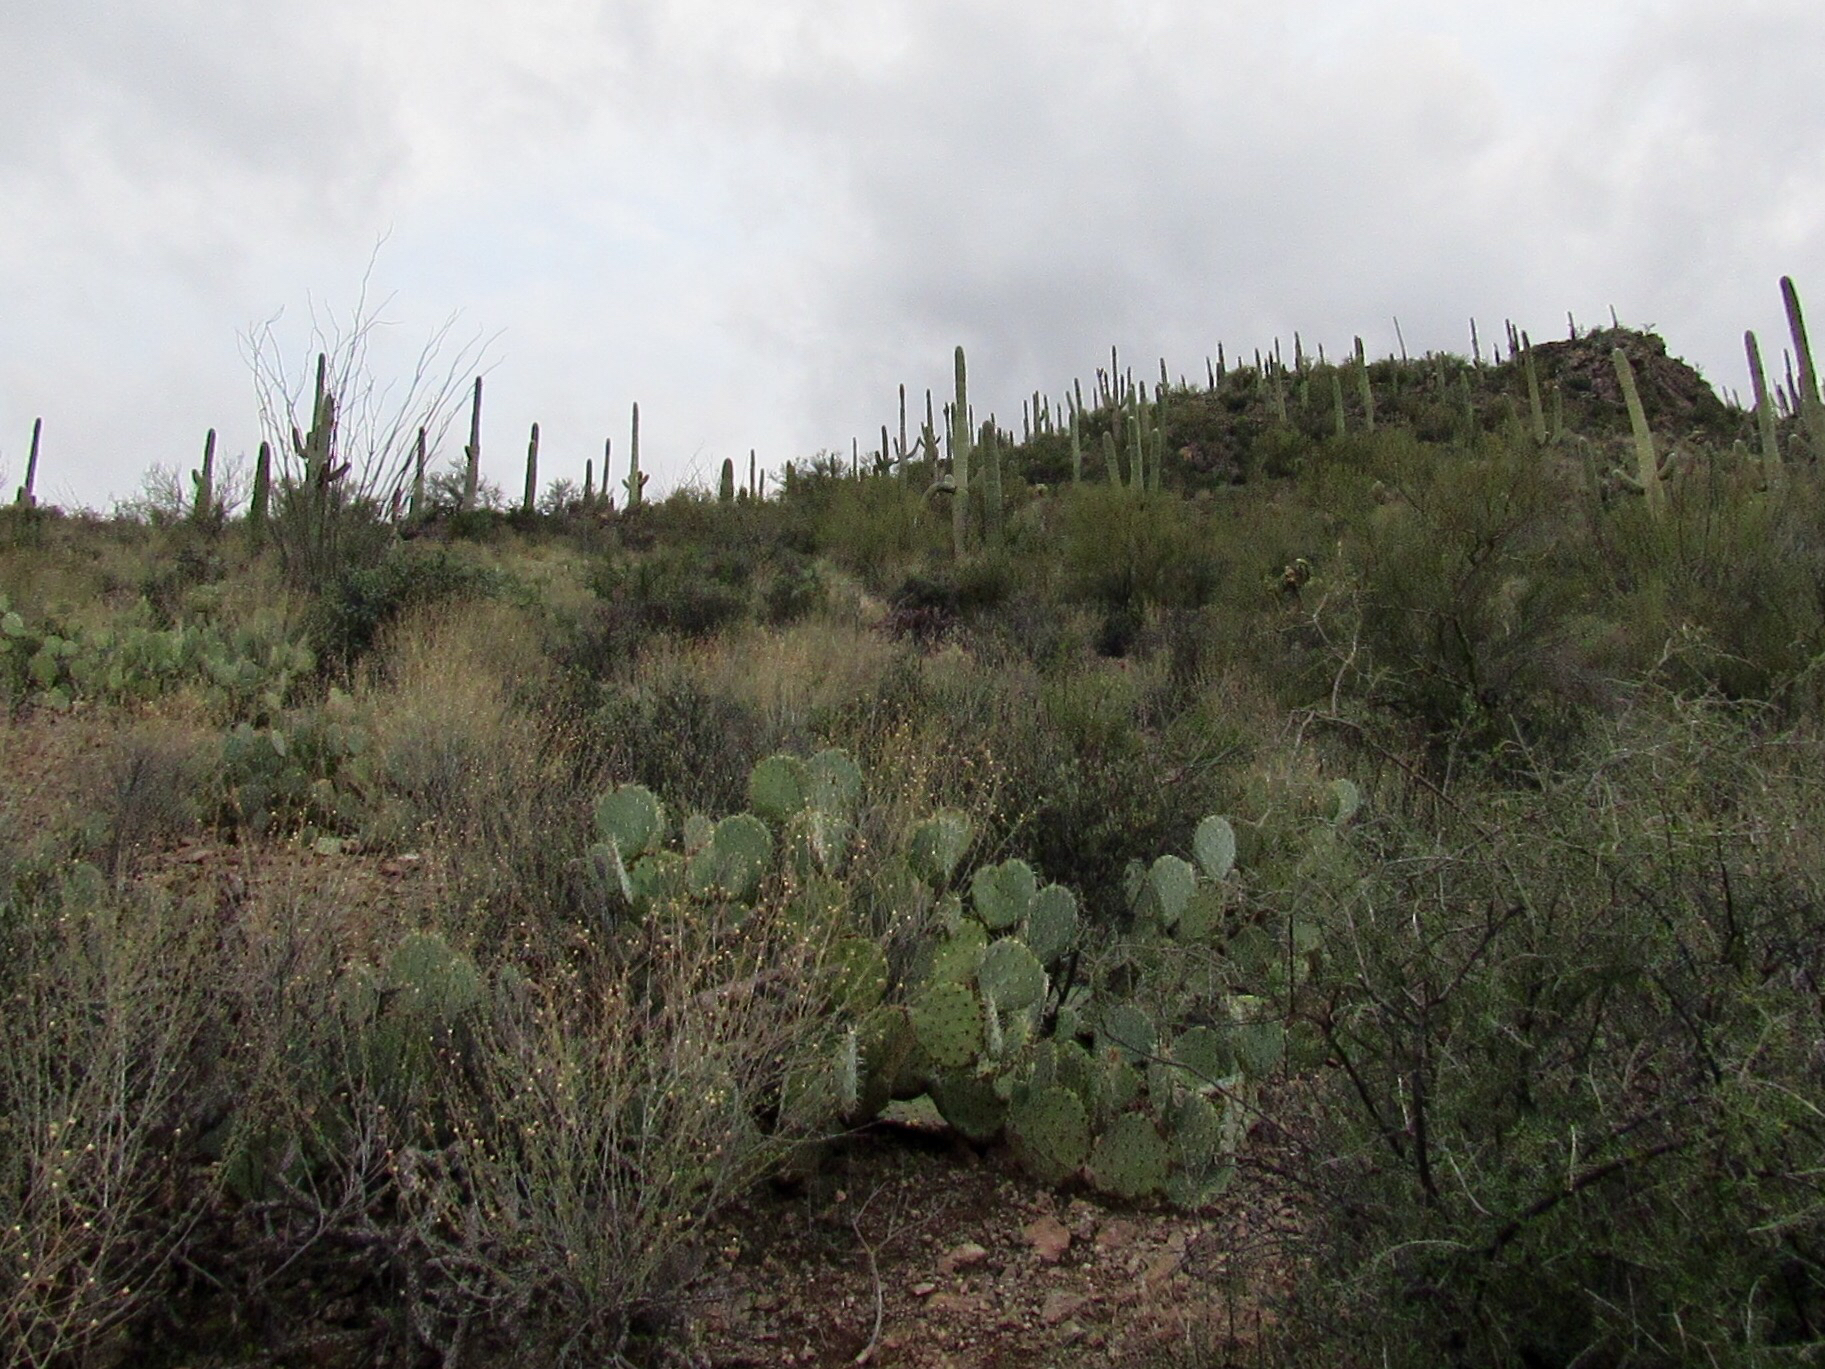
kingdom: Plantae
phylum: Tracheophyta
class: Magnoliopsida
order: Caryophyllales
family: Cactaceae
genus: Opuntia
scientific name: Opuntia engelmannii
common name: Cactus-apple
